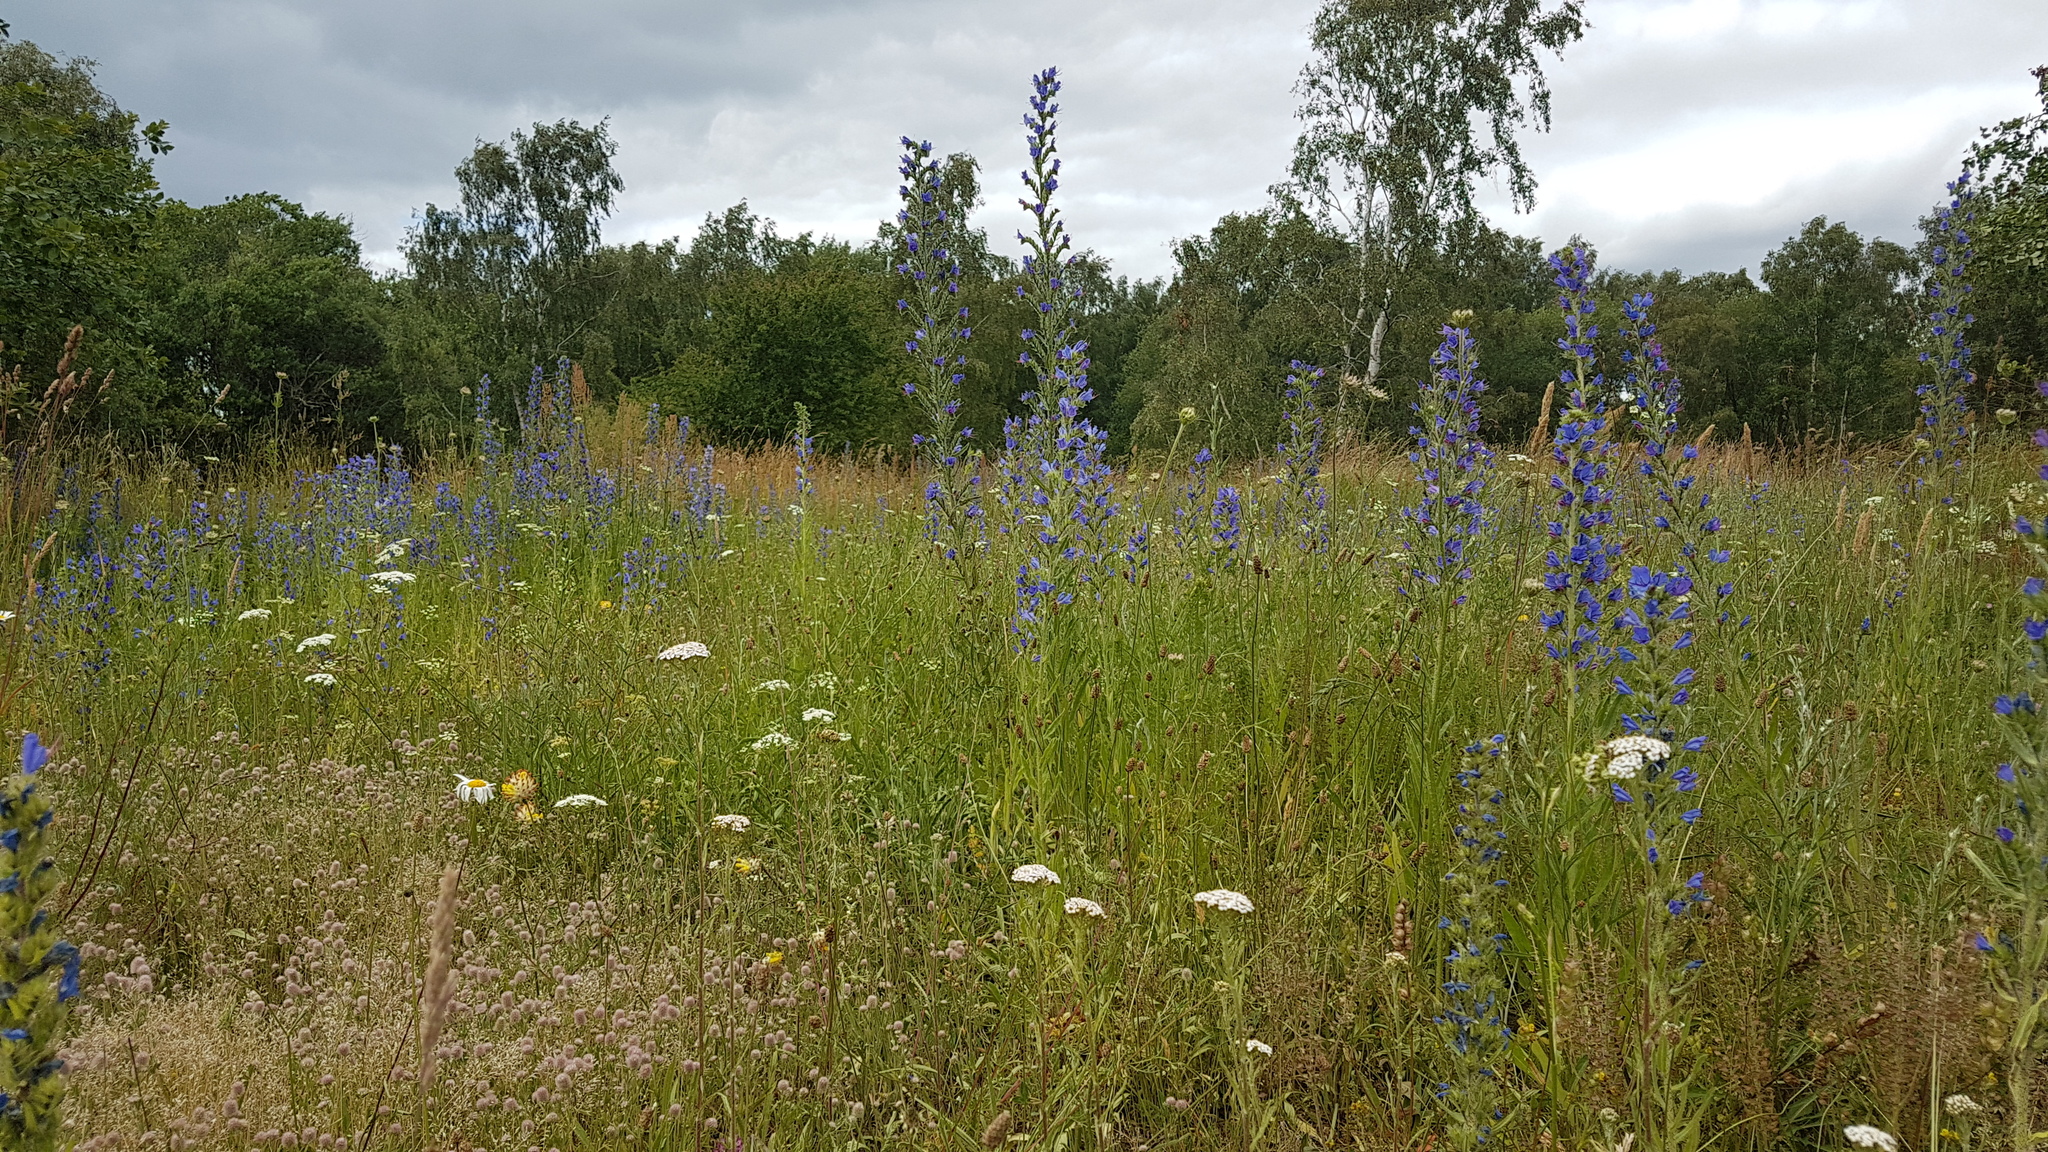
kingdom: Plantae
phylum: Tracheophyta
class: Magnoliopsida
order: Boraginales
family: Boraginaceae
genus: Echium
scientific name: Echium vulgare
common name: Common viper's bugloss
